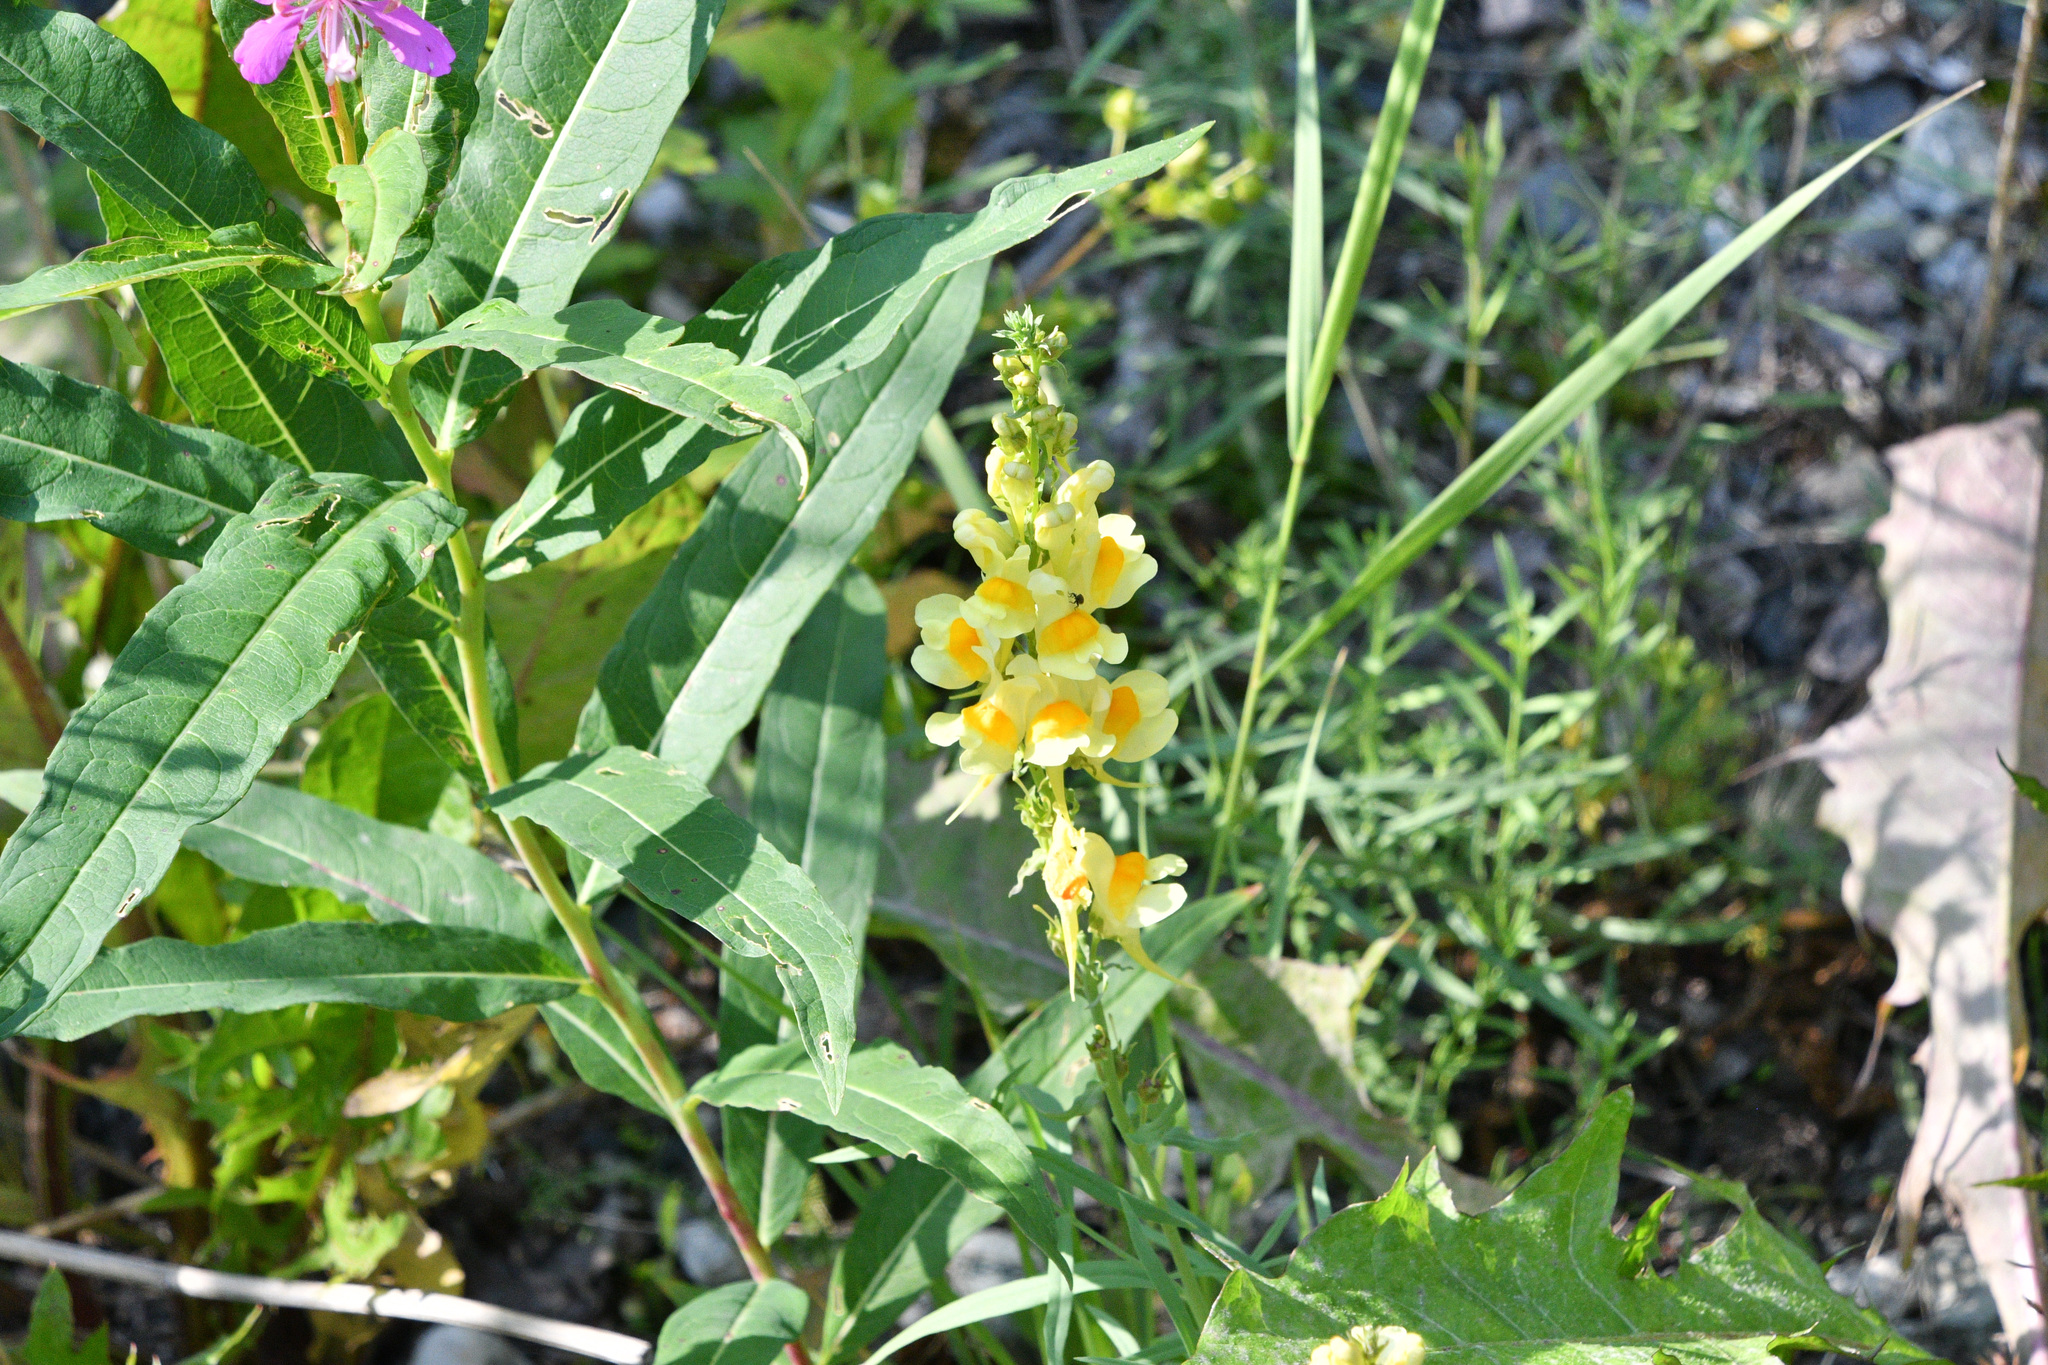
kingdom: Plantae
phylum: Tracheophyta
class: Magnoliopsida
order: Lamiales
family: Plantaginaceae
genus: Linaria
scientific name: Linaria vulgaris
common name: Butter and eggs
